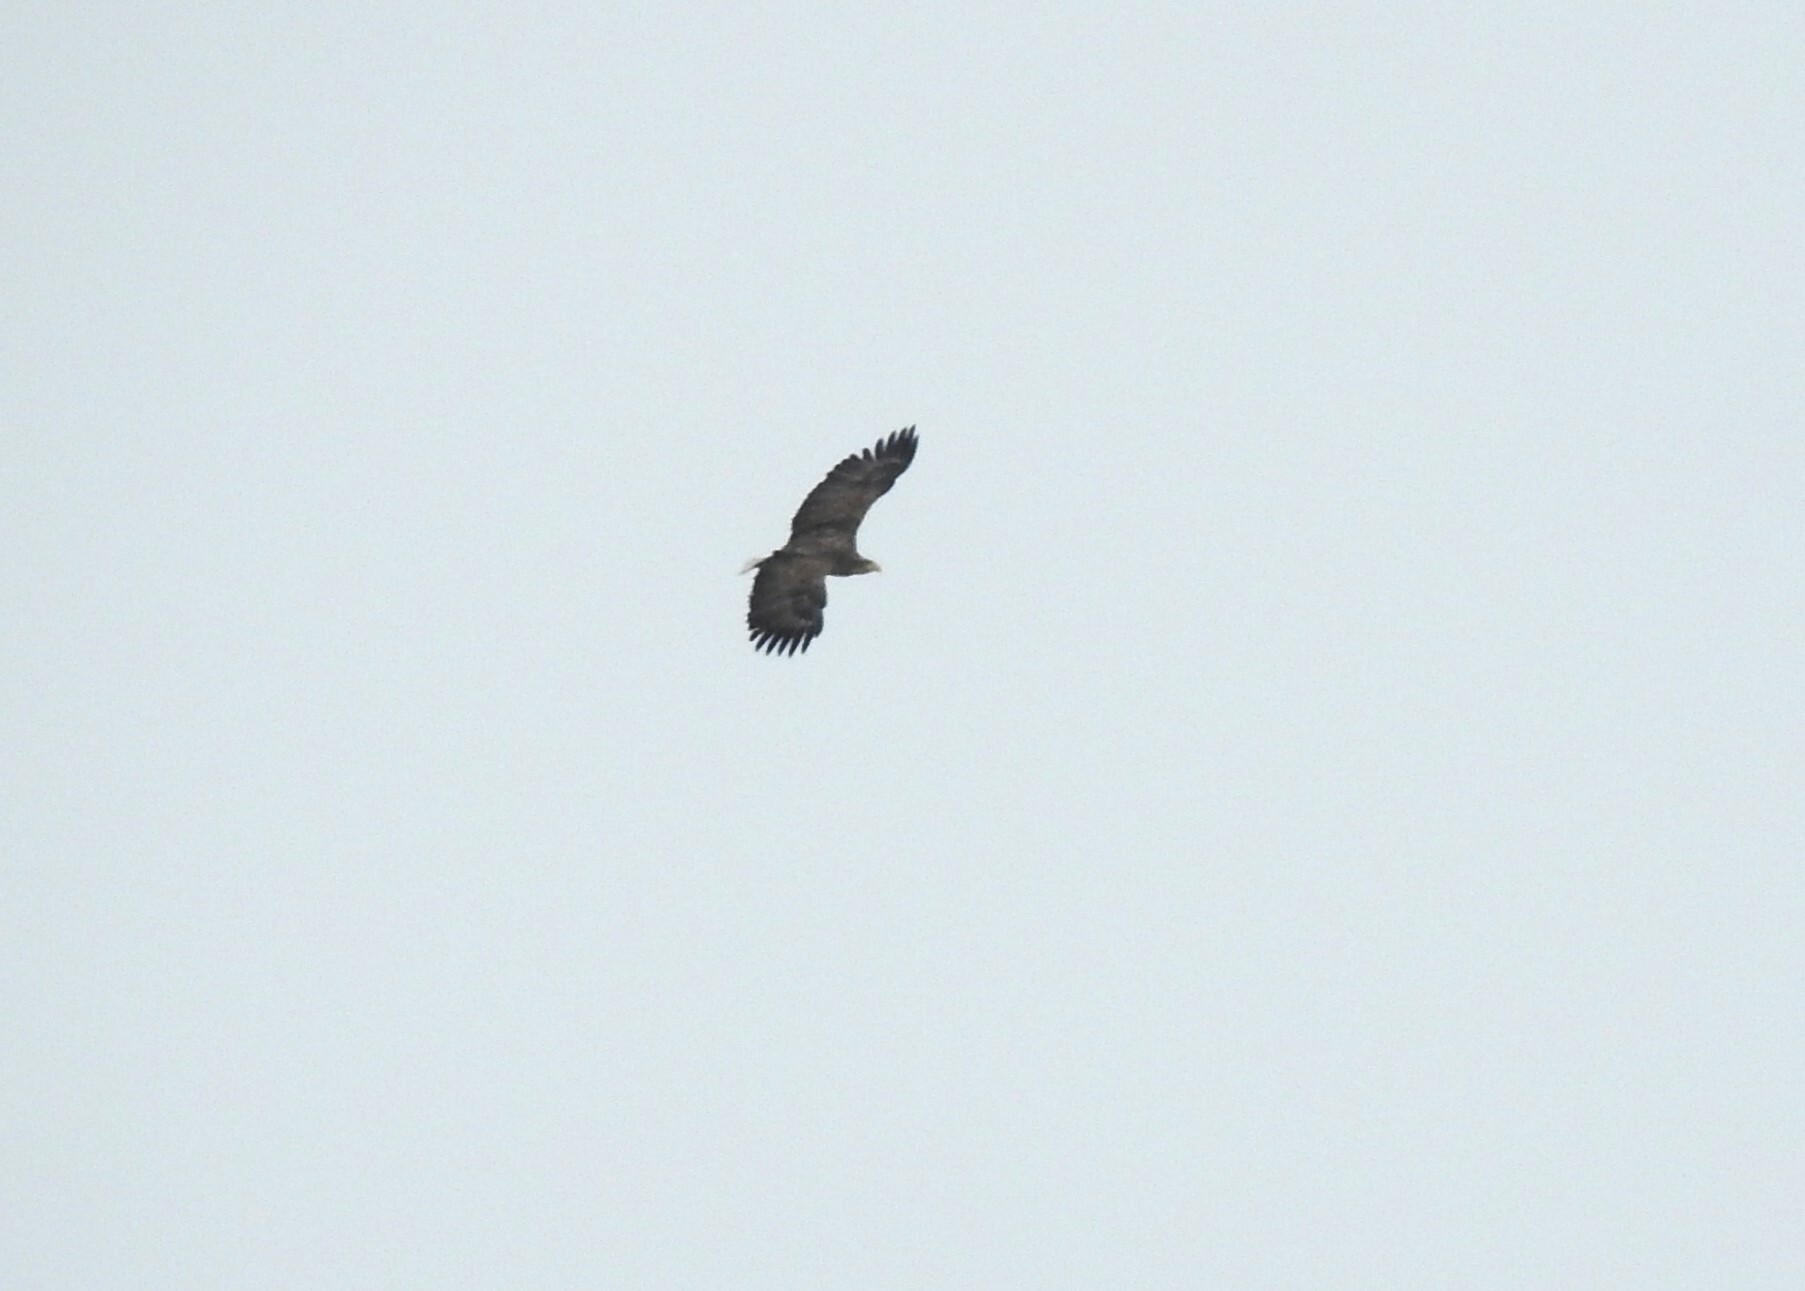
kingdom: Animalia
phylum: Chordata
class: Aves
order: Accipitriformes
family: Accipitridae
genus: Haliaeetus
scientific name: Haliaeetus albicilla
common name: White-tailed eagle
